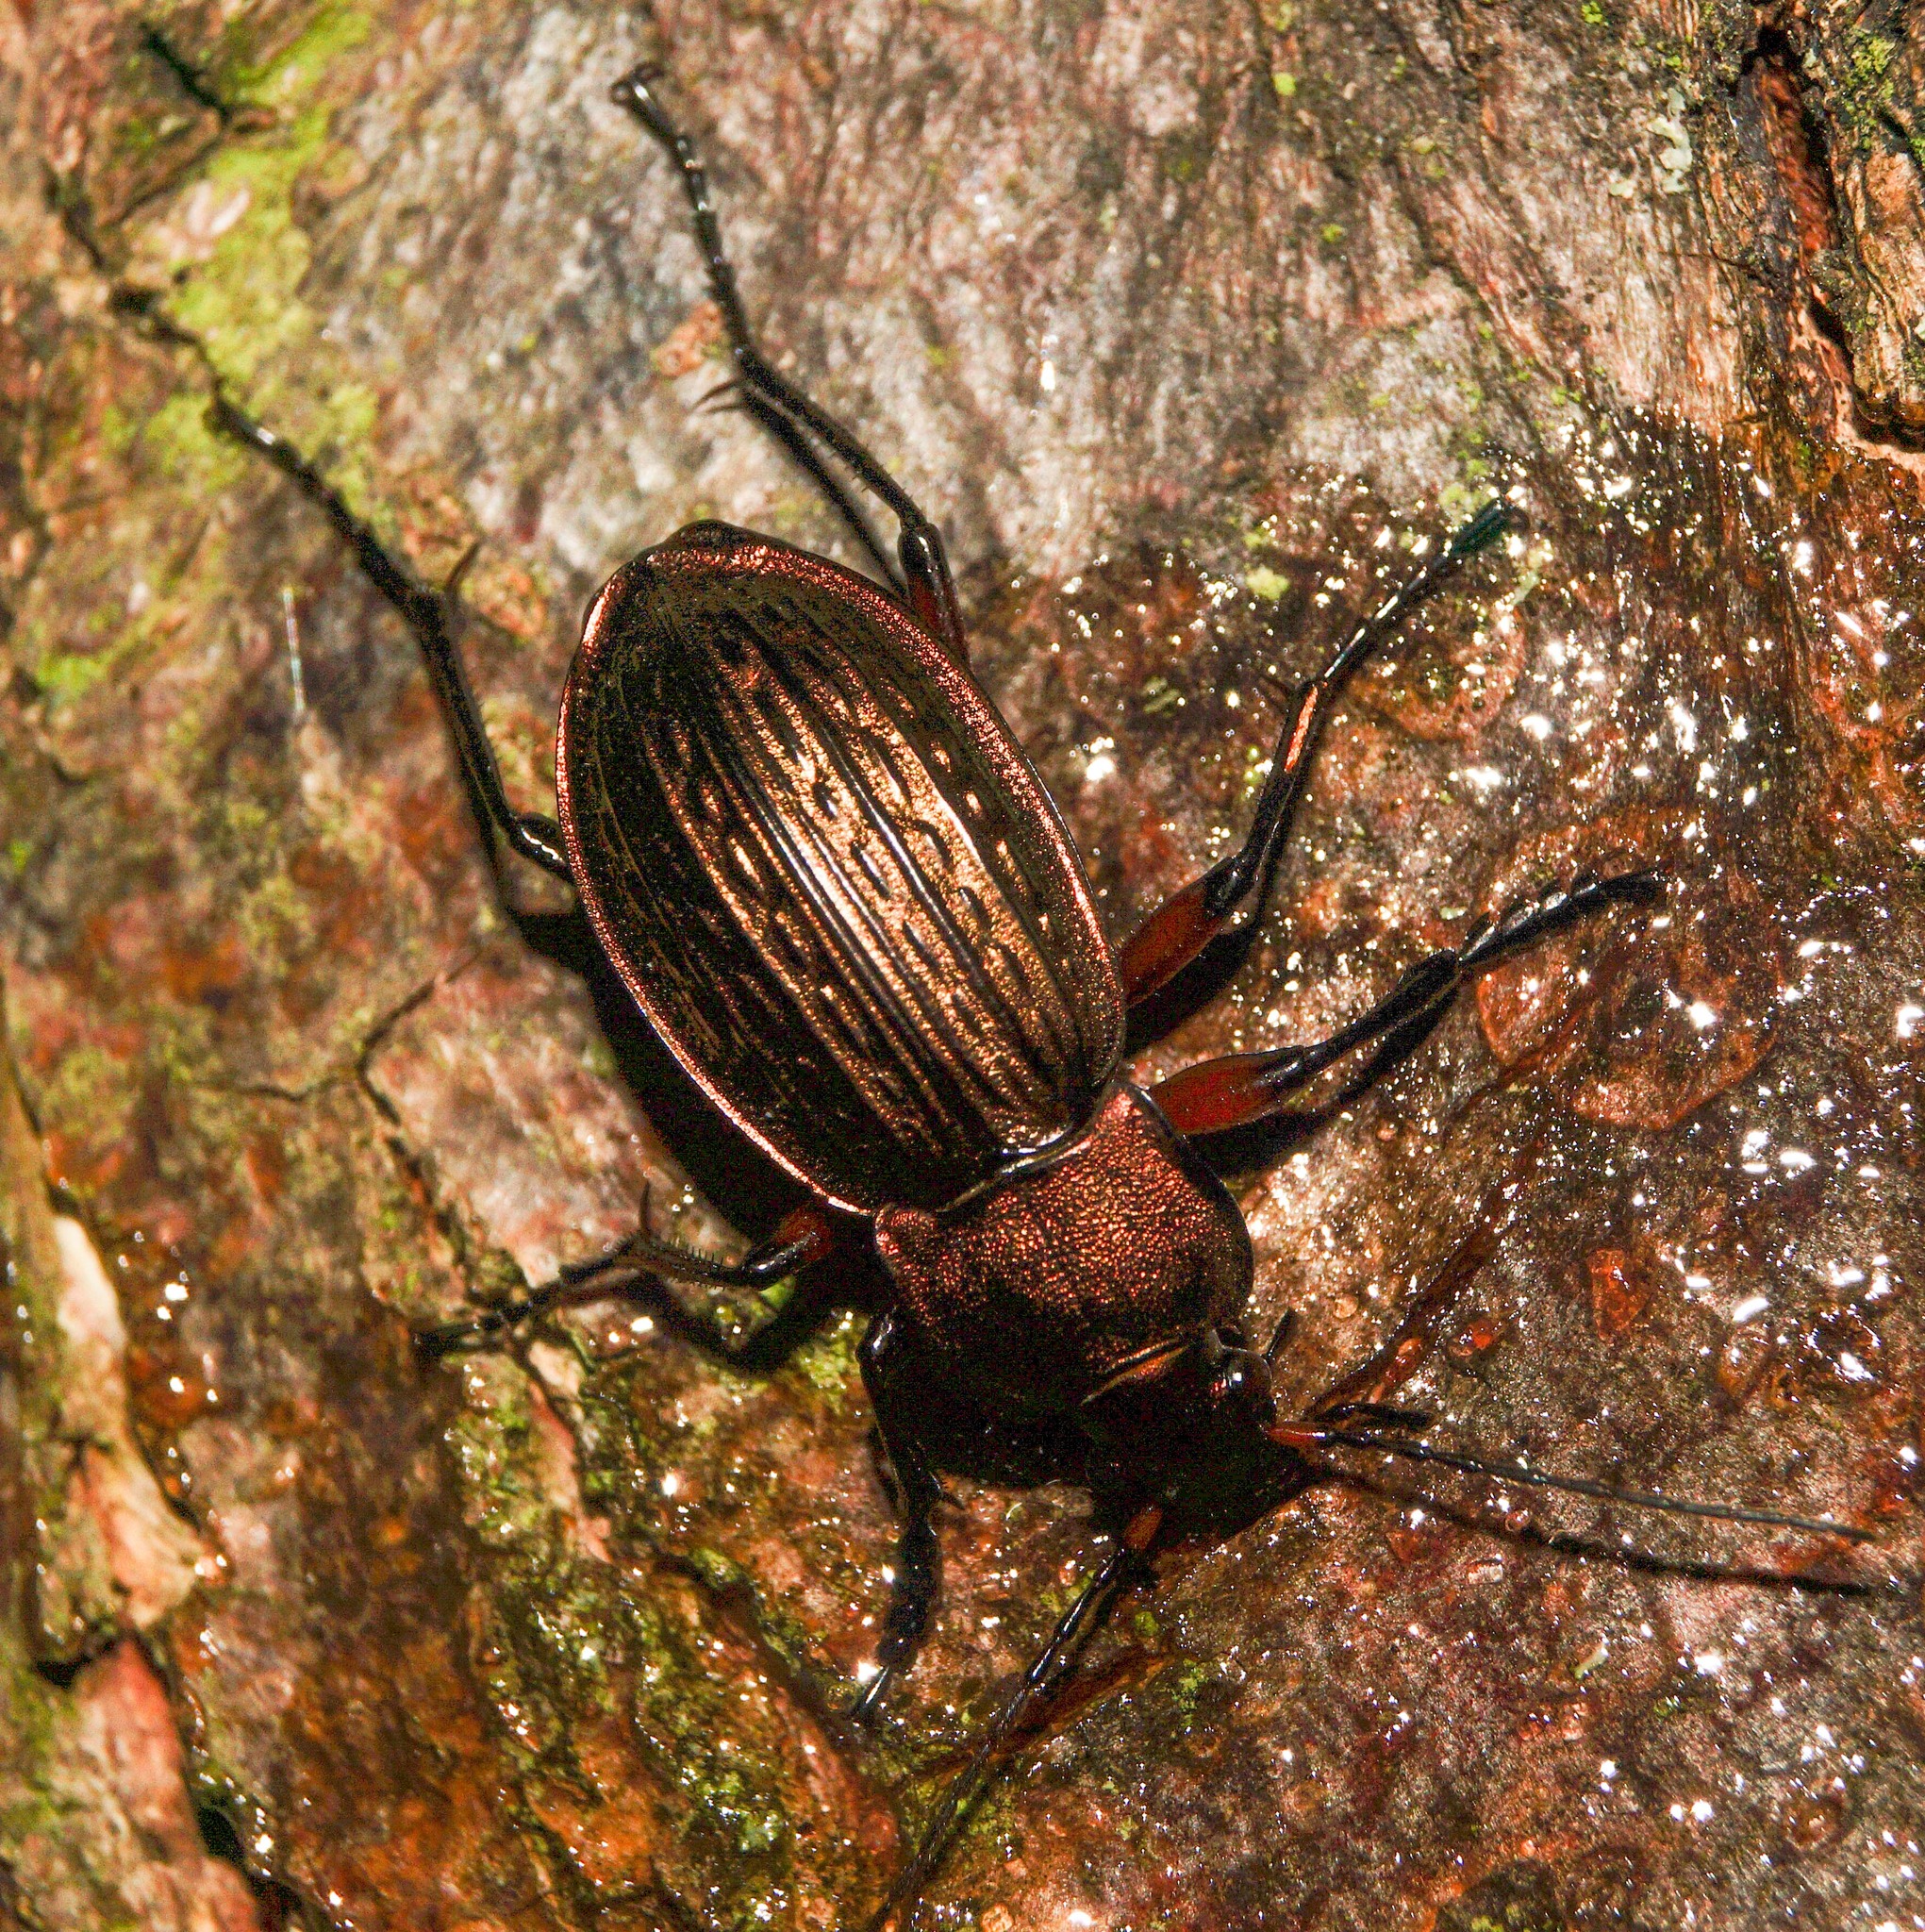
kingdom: Animalia
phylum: Arthropoda
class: Insecta
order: Coleoptera
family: Carabidae
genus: Carabus
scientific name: Carabus cancellatus
